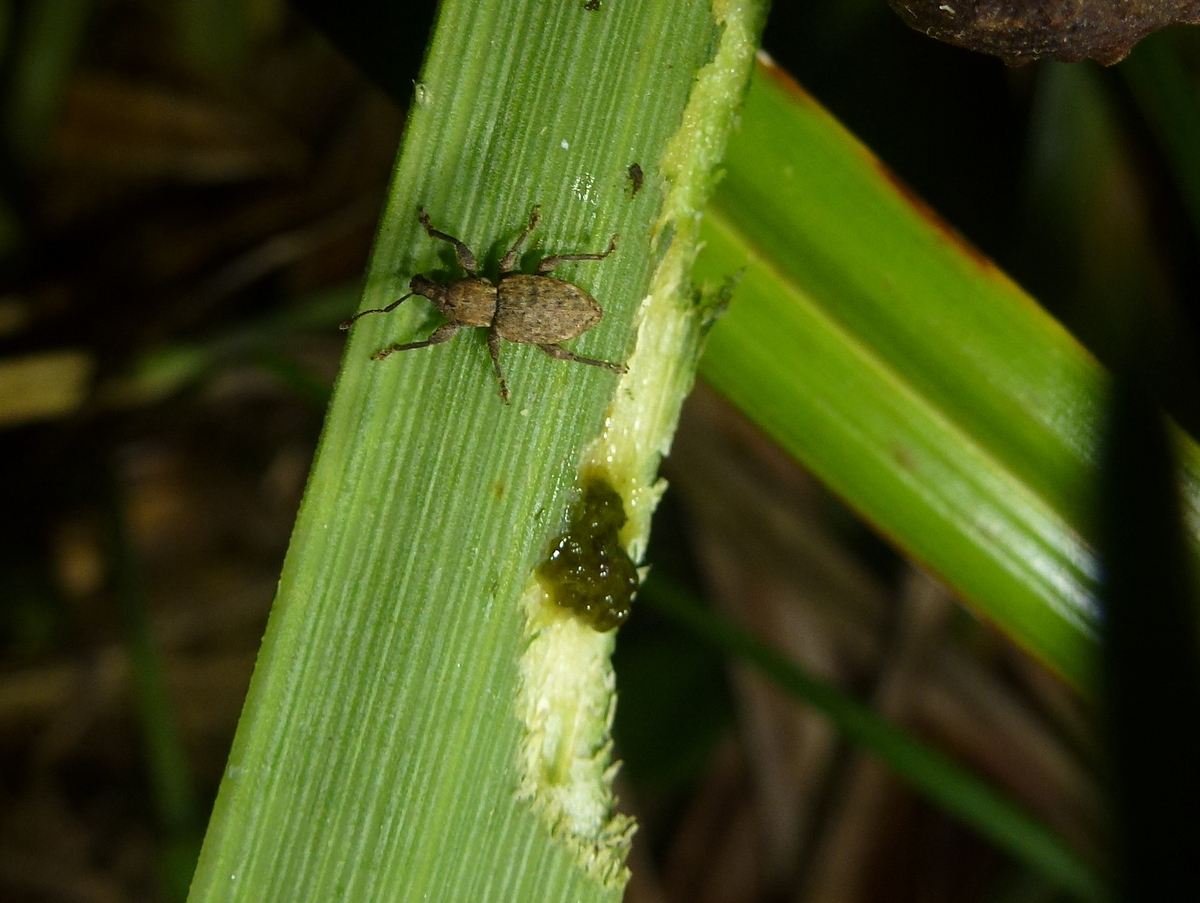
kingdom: Animalia
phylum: Arthropoda
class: Insecta
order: Coleoptera
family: Curculionidae
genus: Inophloeus
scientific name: Inophloeus traversii
